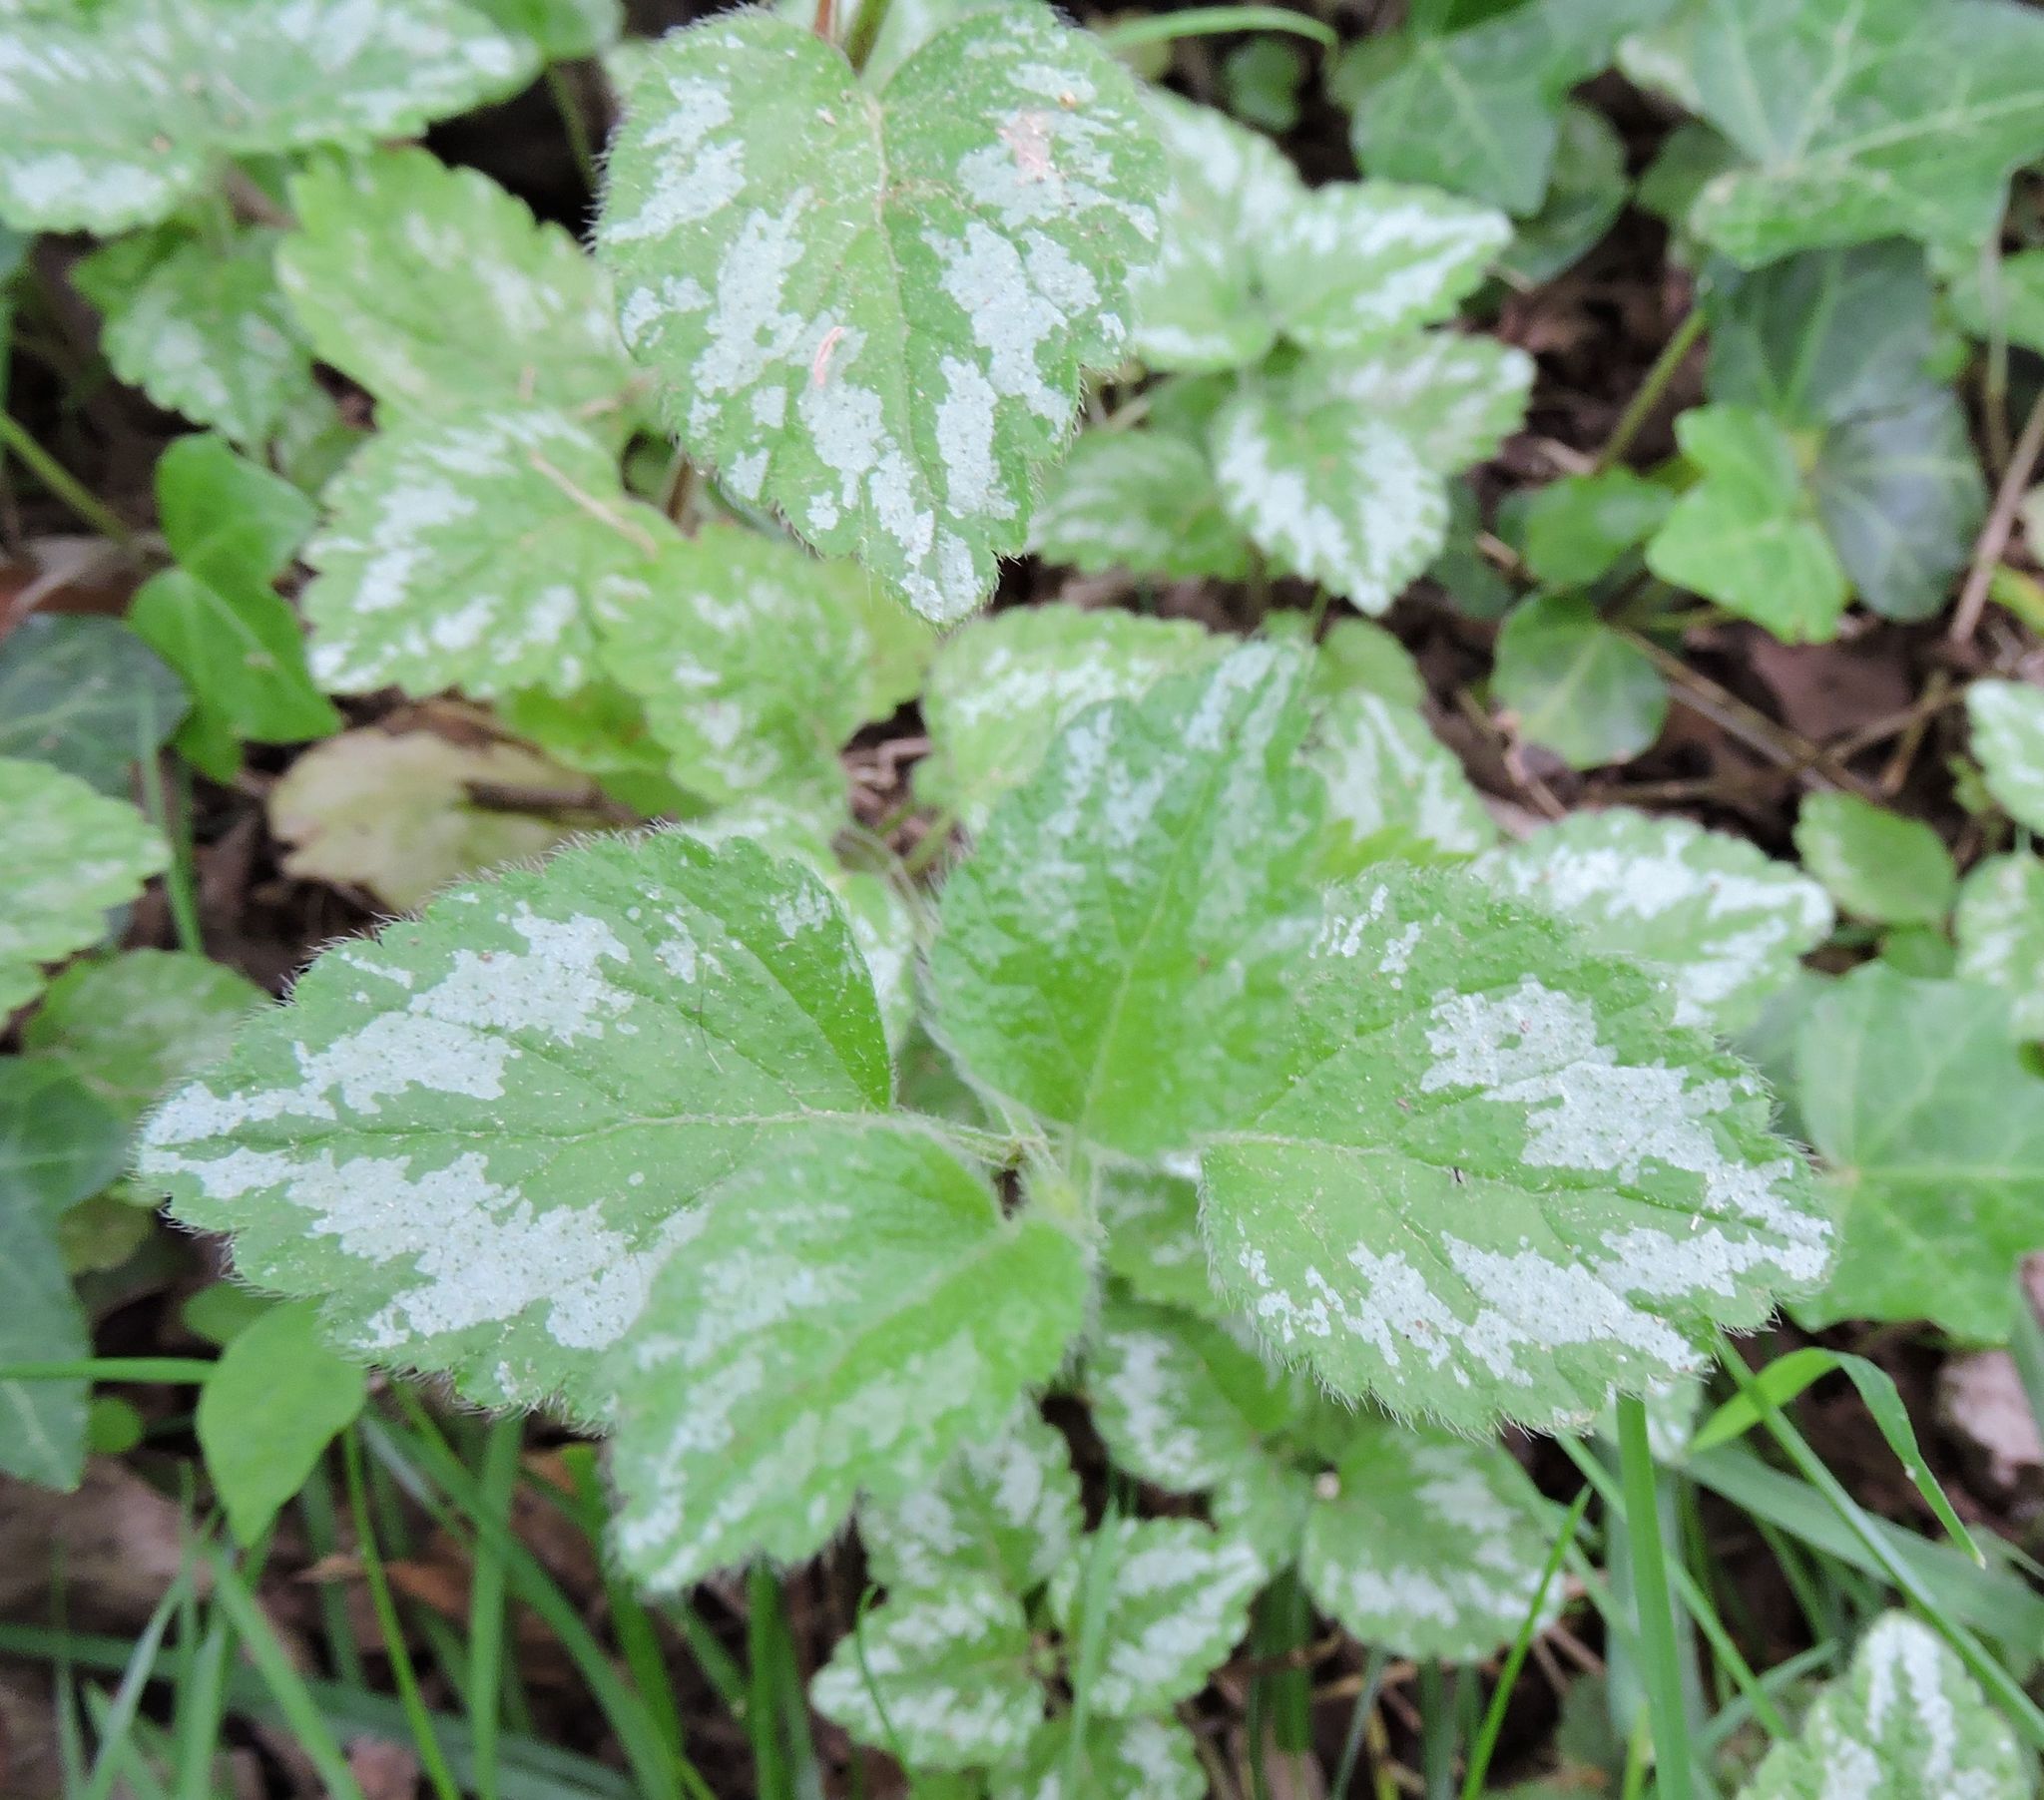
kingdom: Plantae
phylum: Tracheophyta
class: Magnoliopsida
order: Lamiales
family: Lamiaceae
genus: Lamium
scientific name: Lamium galeobdolon
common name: Yellow archangel
